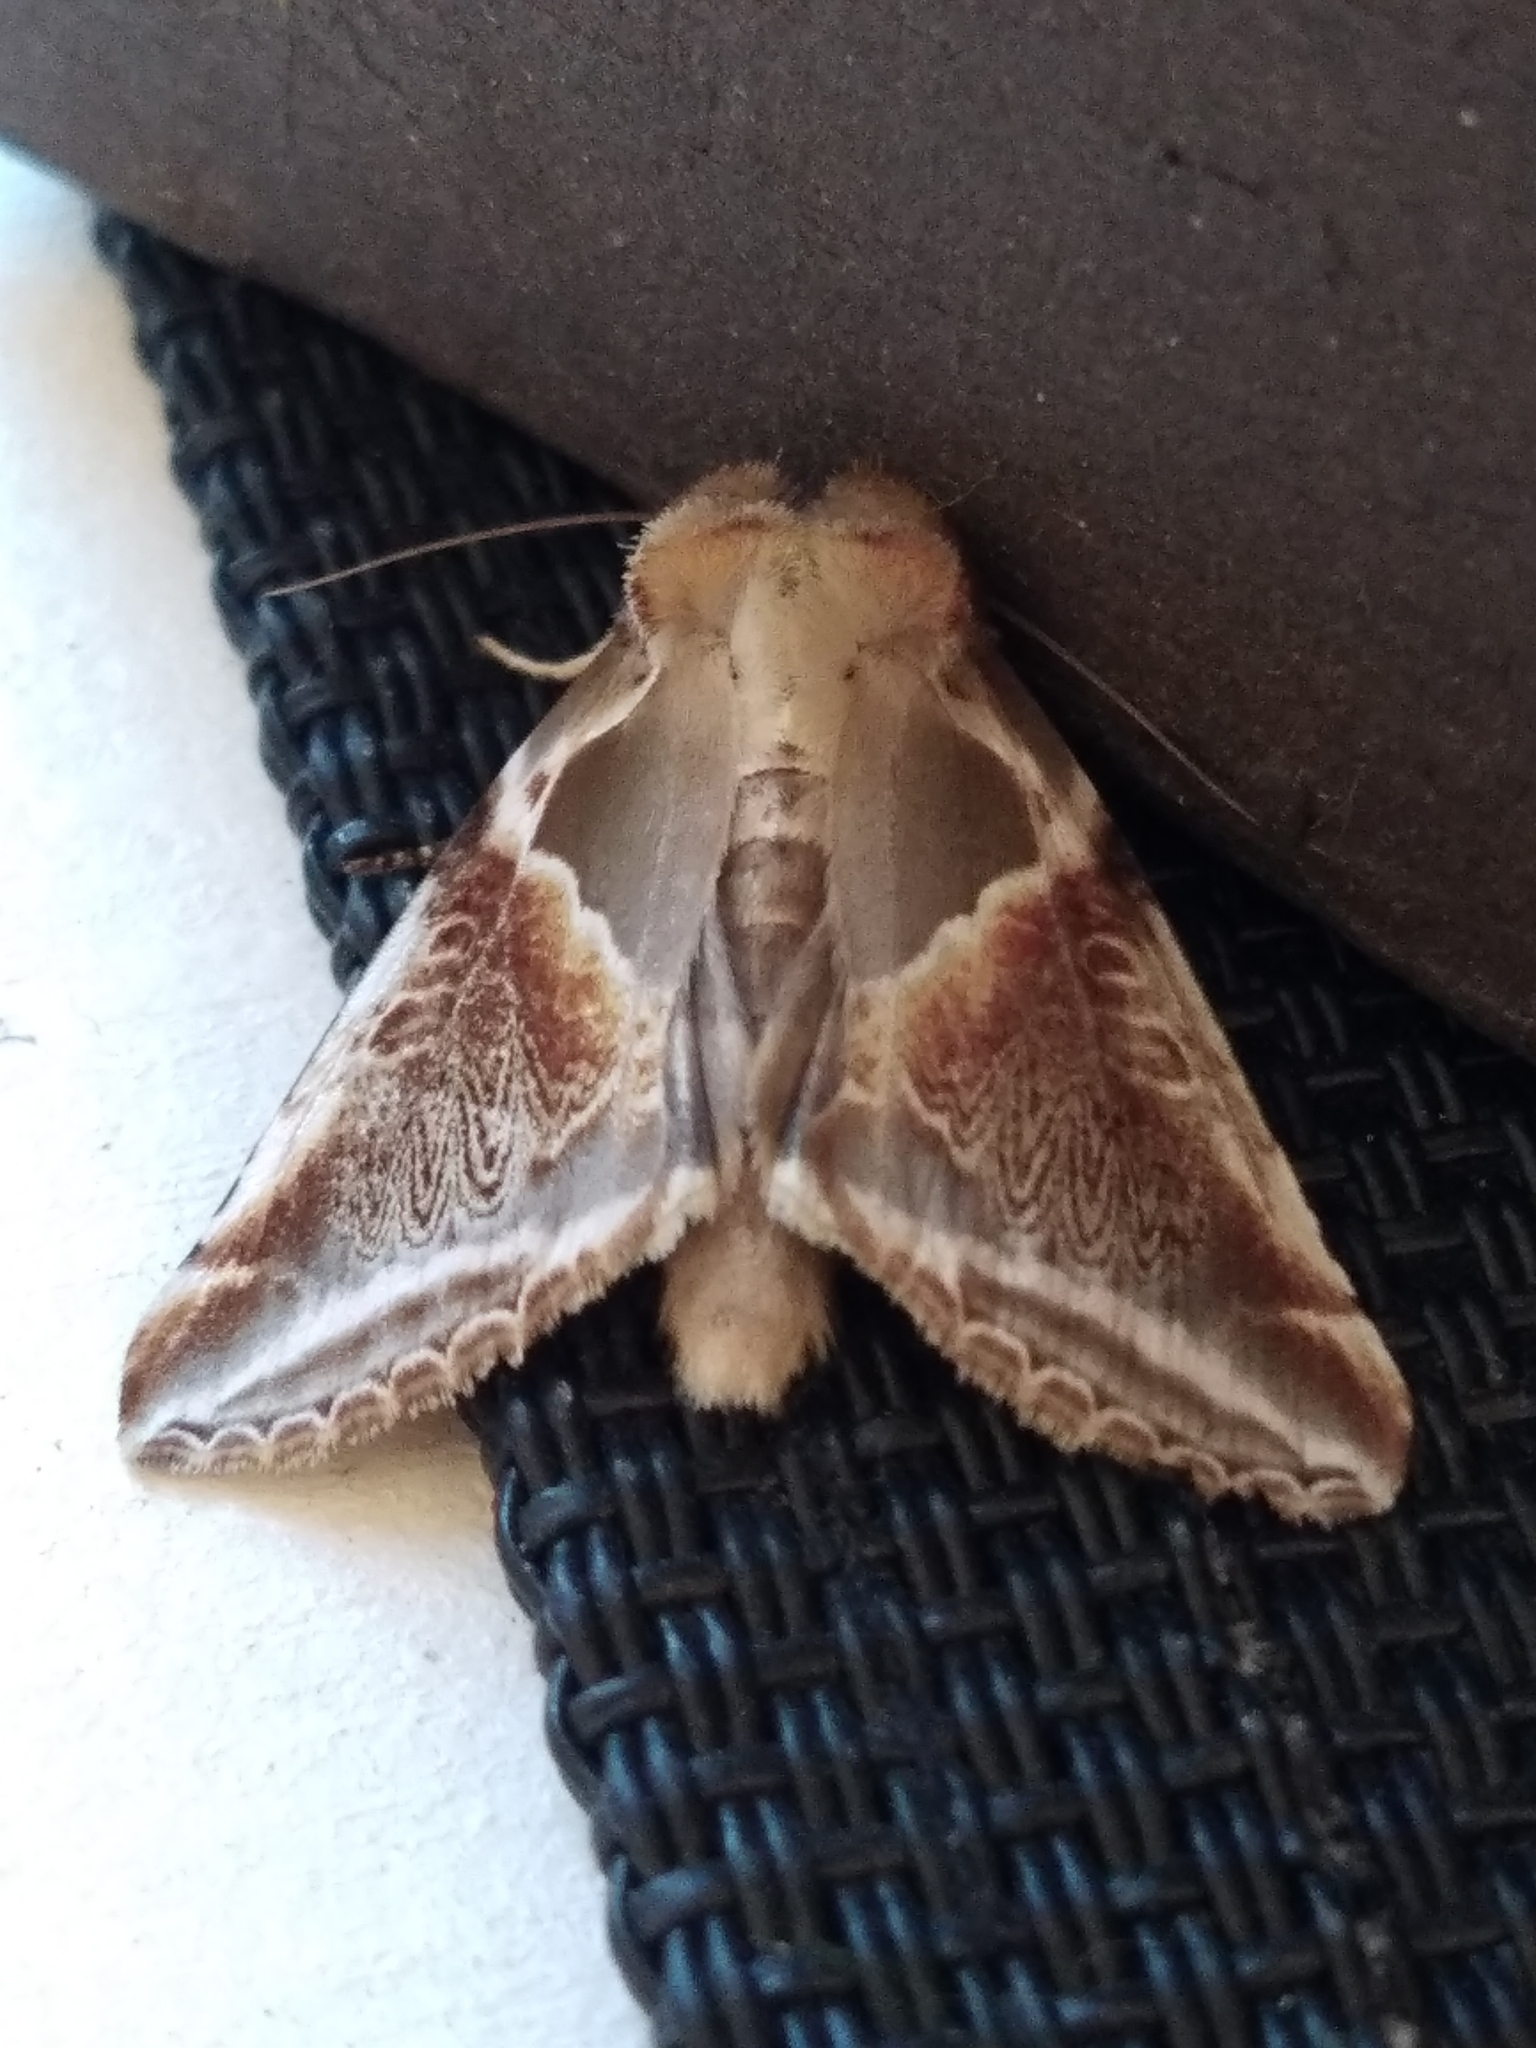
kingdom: Animalia
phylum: Arthropoda
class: Insecta
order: Lepidoptera
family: Drepanidae
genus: Habrosyne
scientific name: Habrosyne pyritoides
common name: Buff arches
